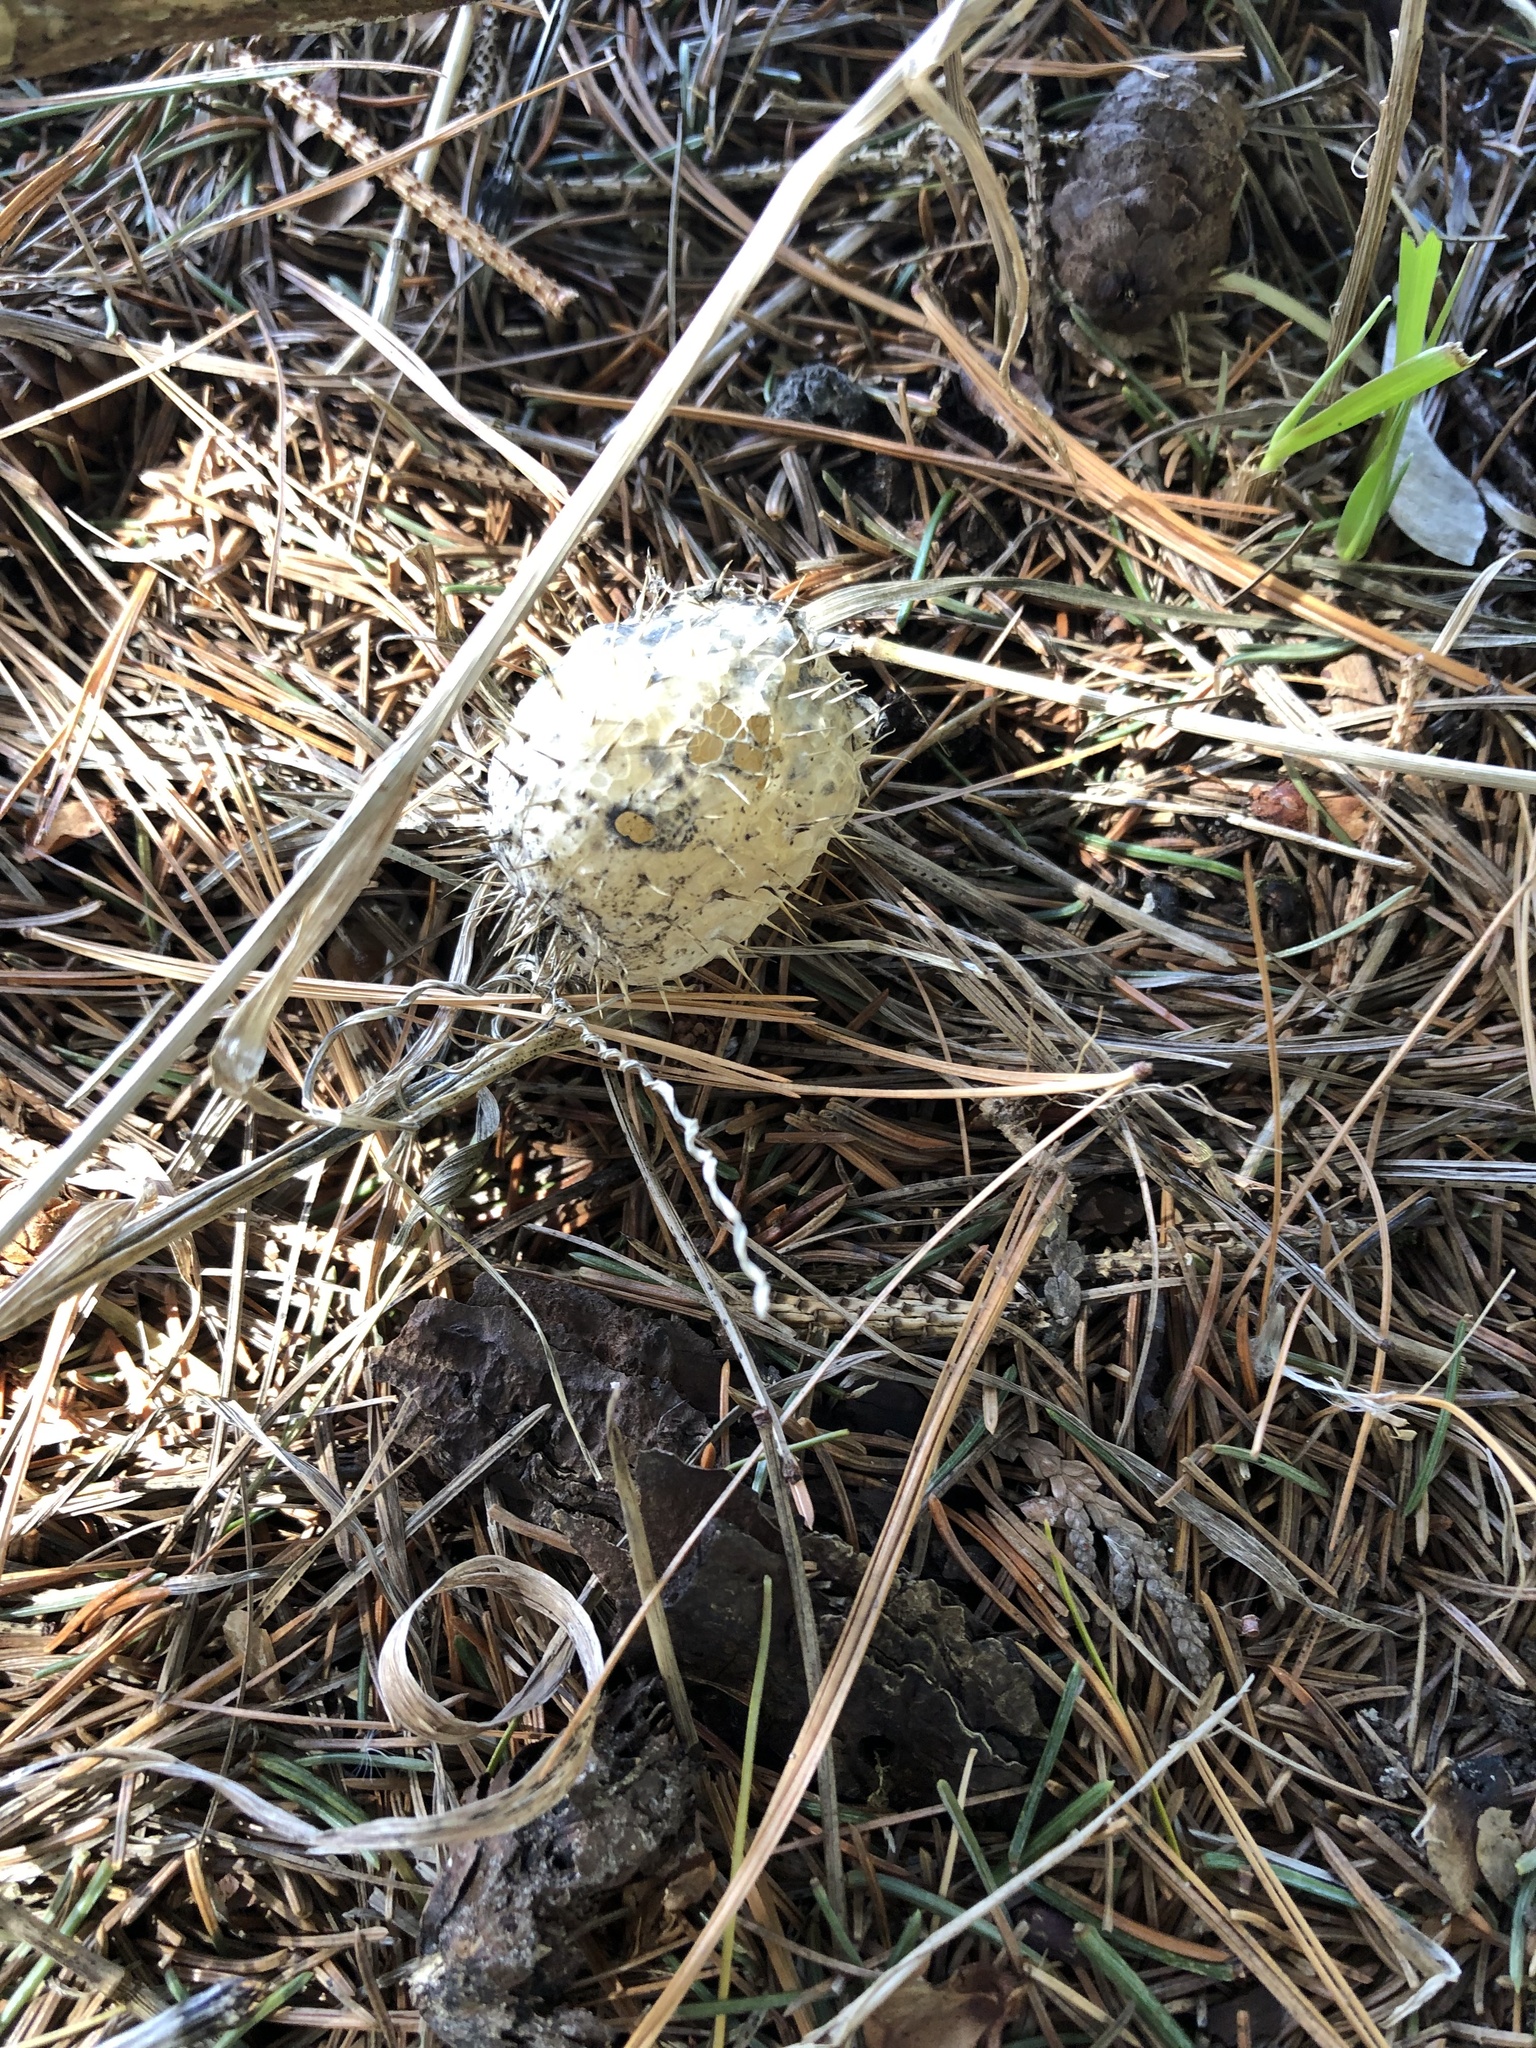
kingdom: Plantae
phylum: Tracheophyta
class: Magnoliopsida
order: Cucurbitales
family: Cucurbitaceae
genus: Echinocystis
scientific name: Echinocystis lobata
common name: Wild cucumber
